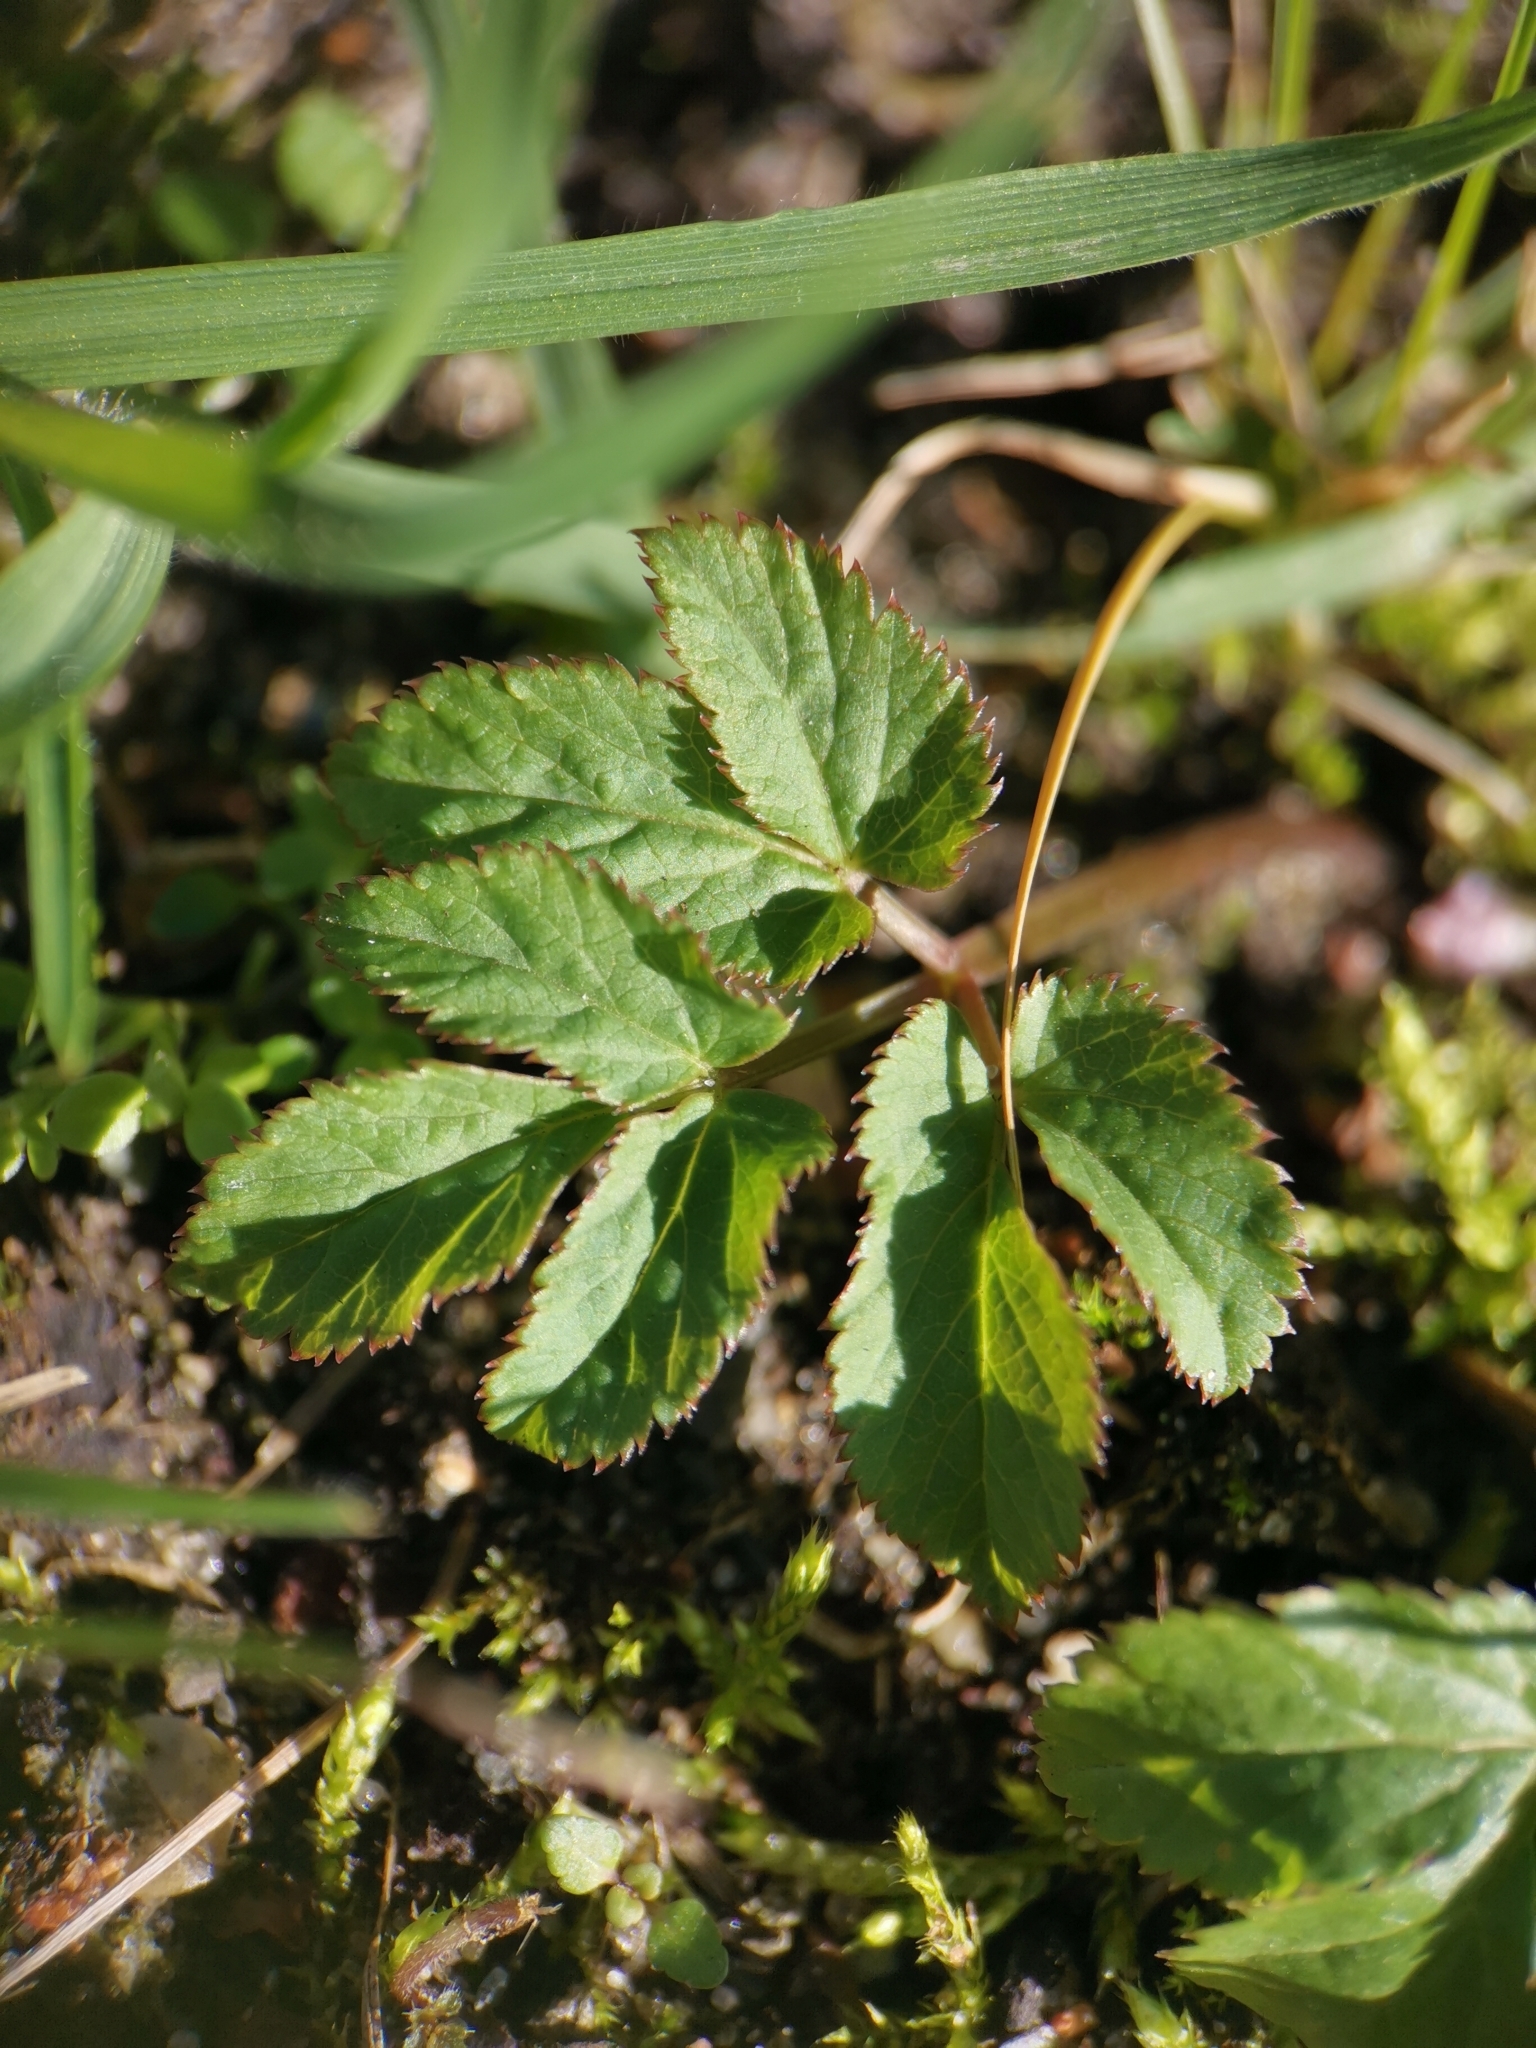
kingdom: Plantae
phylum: Tracheophyta
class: Magnoliopsida
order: Apiales
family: Apiaceae
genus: Aegopodium
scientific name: Aegopodium podagraria
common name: Ground-elder
